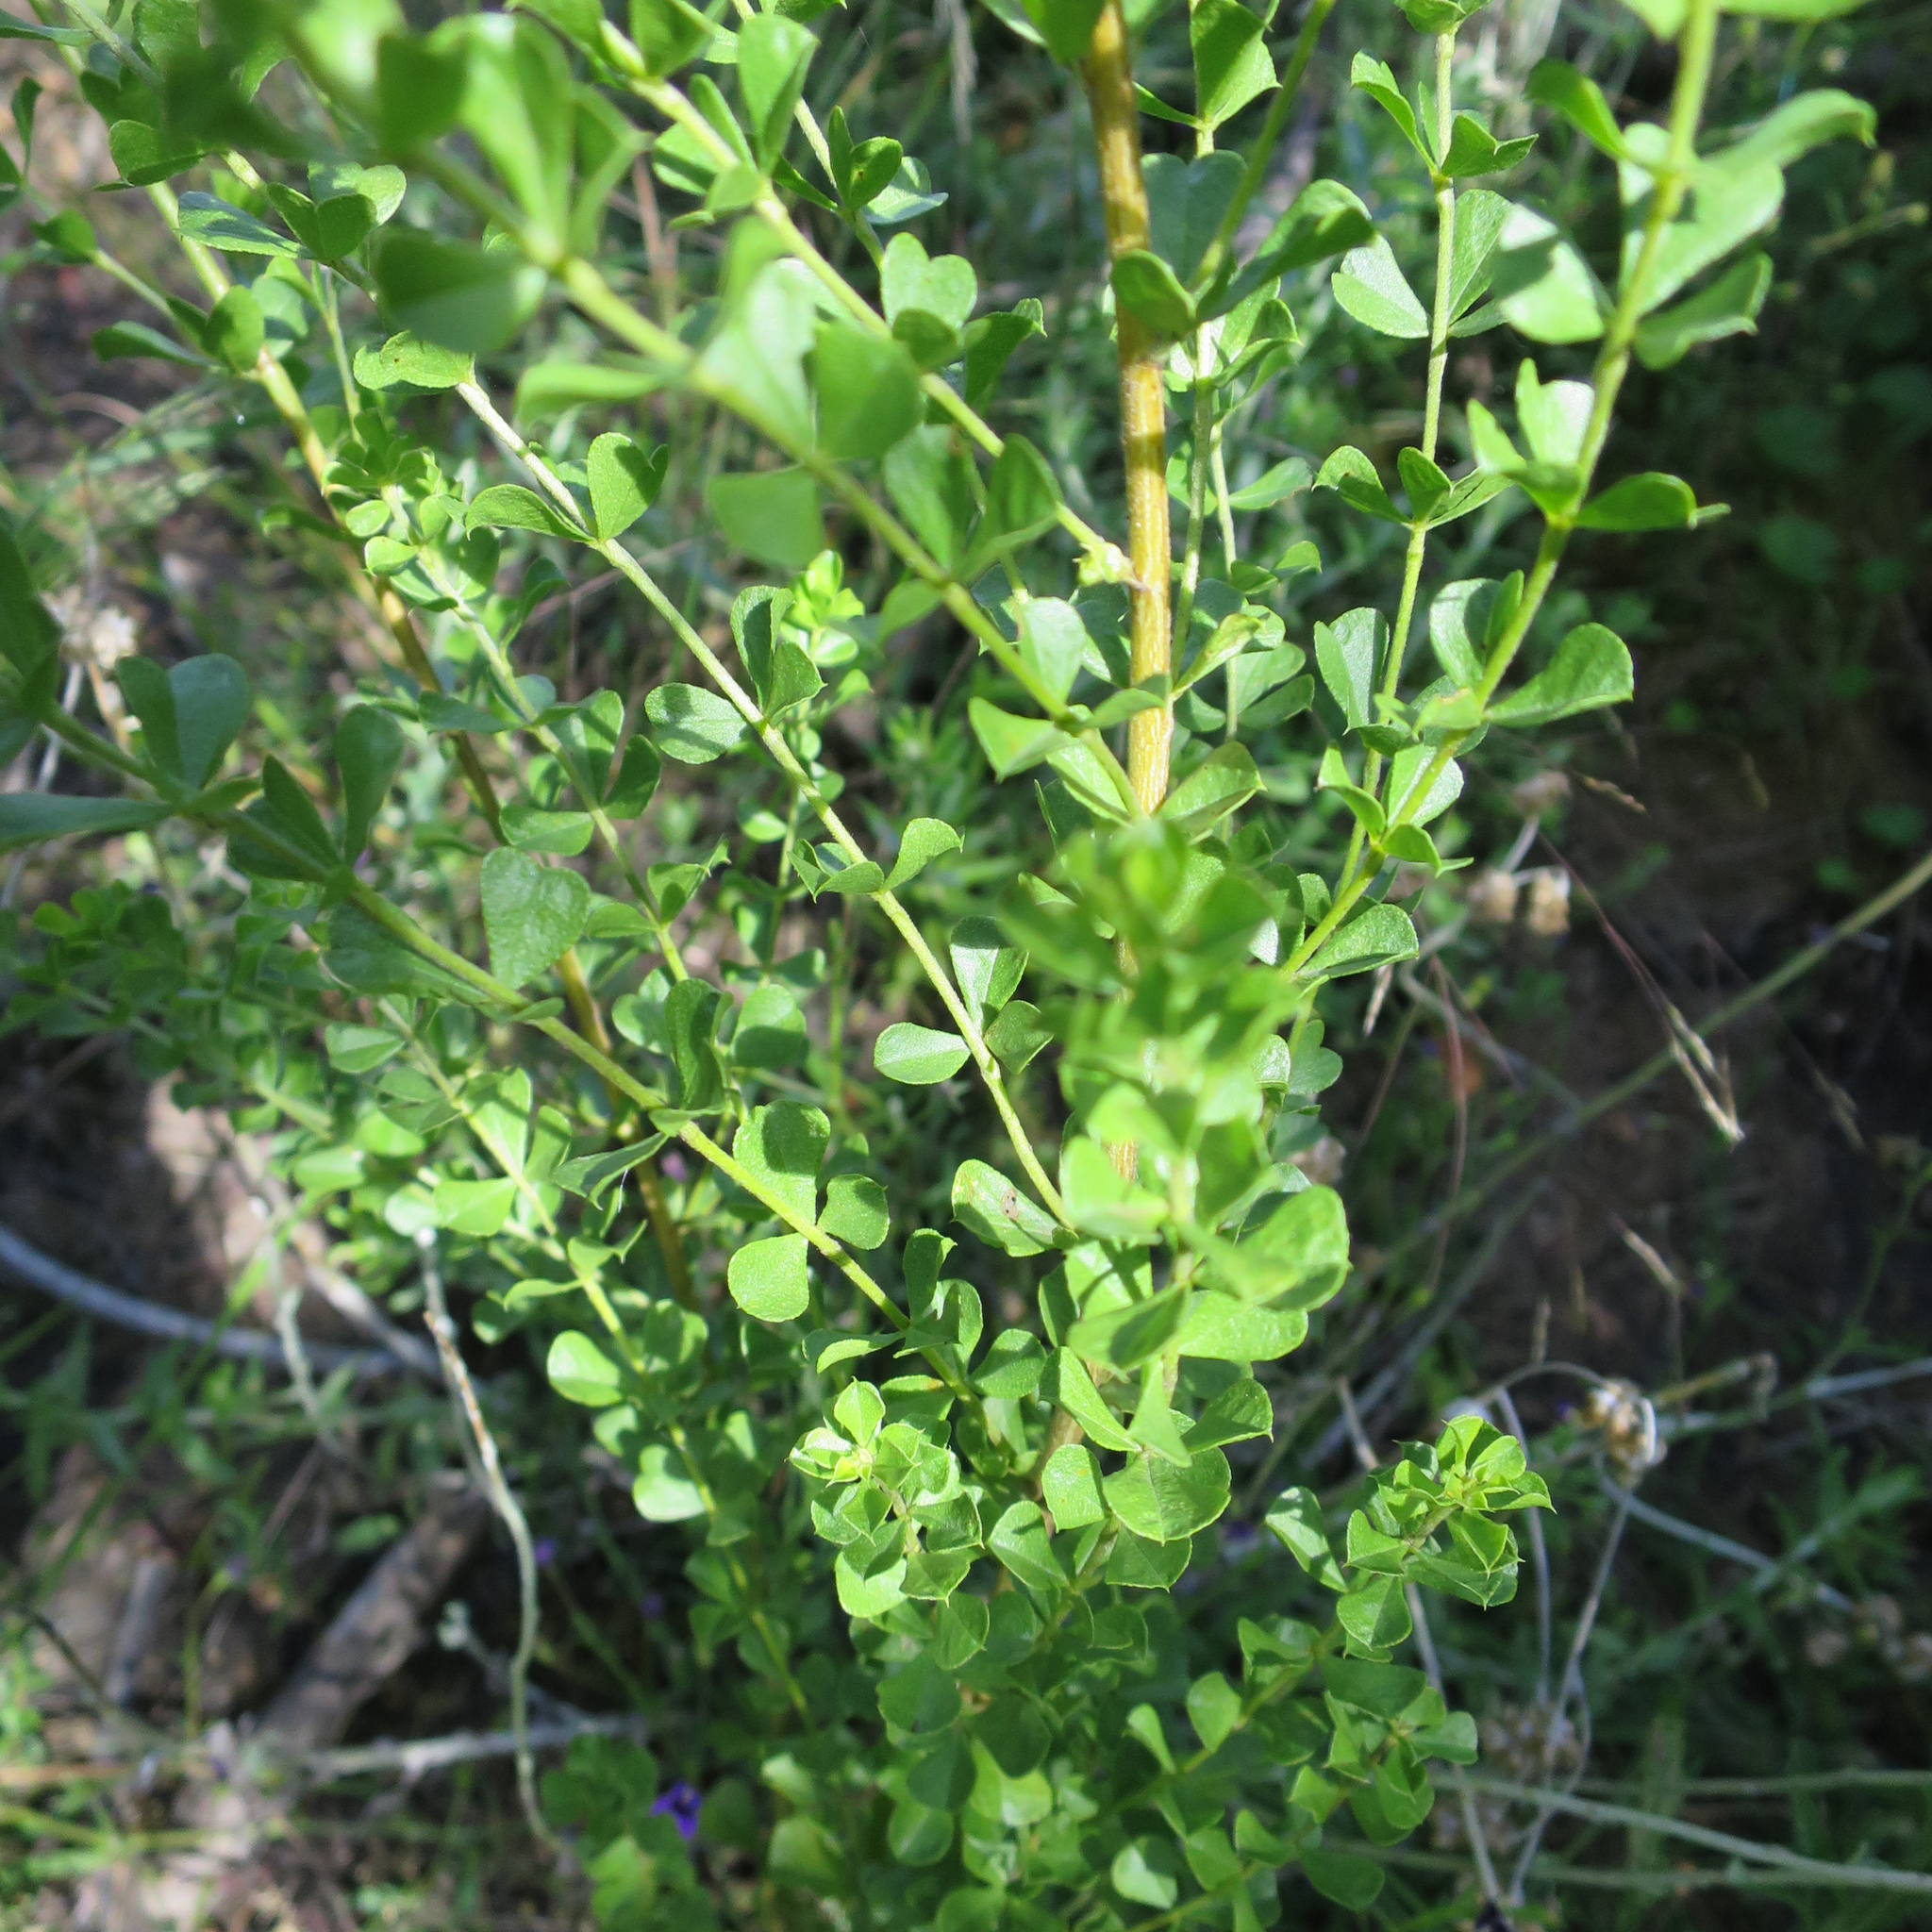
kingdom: Plantae
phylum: Tracheophyta
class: Magnoliopsida
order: Fabales
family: Fabaceae
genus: Psoralea
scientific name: Psoralea stachyera
